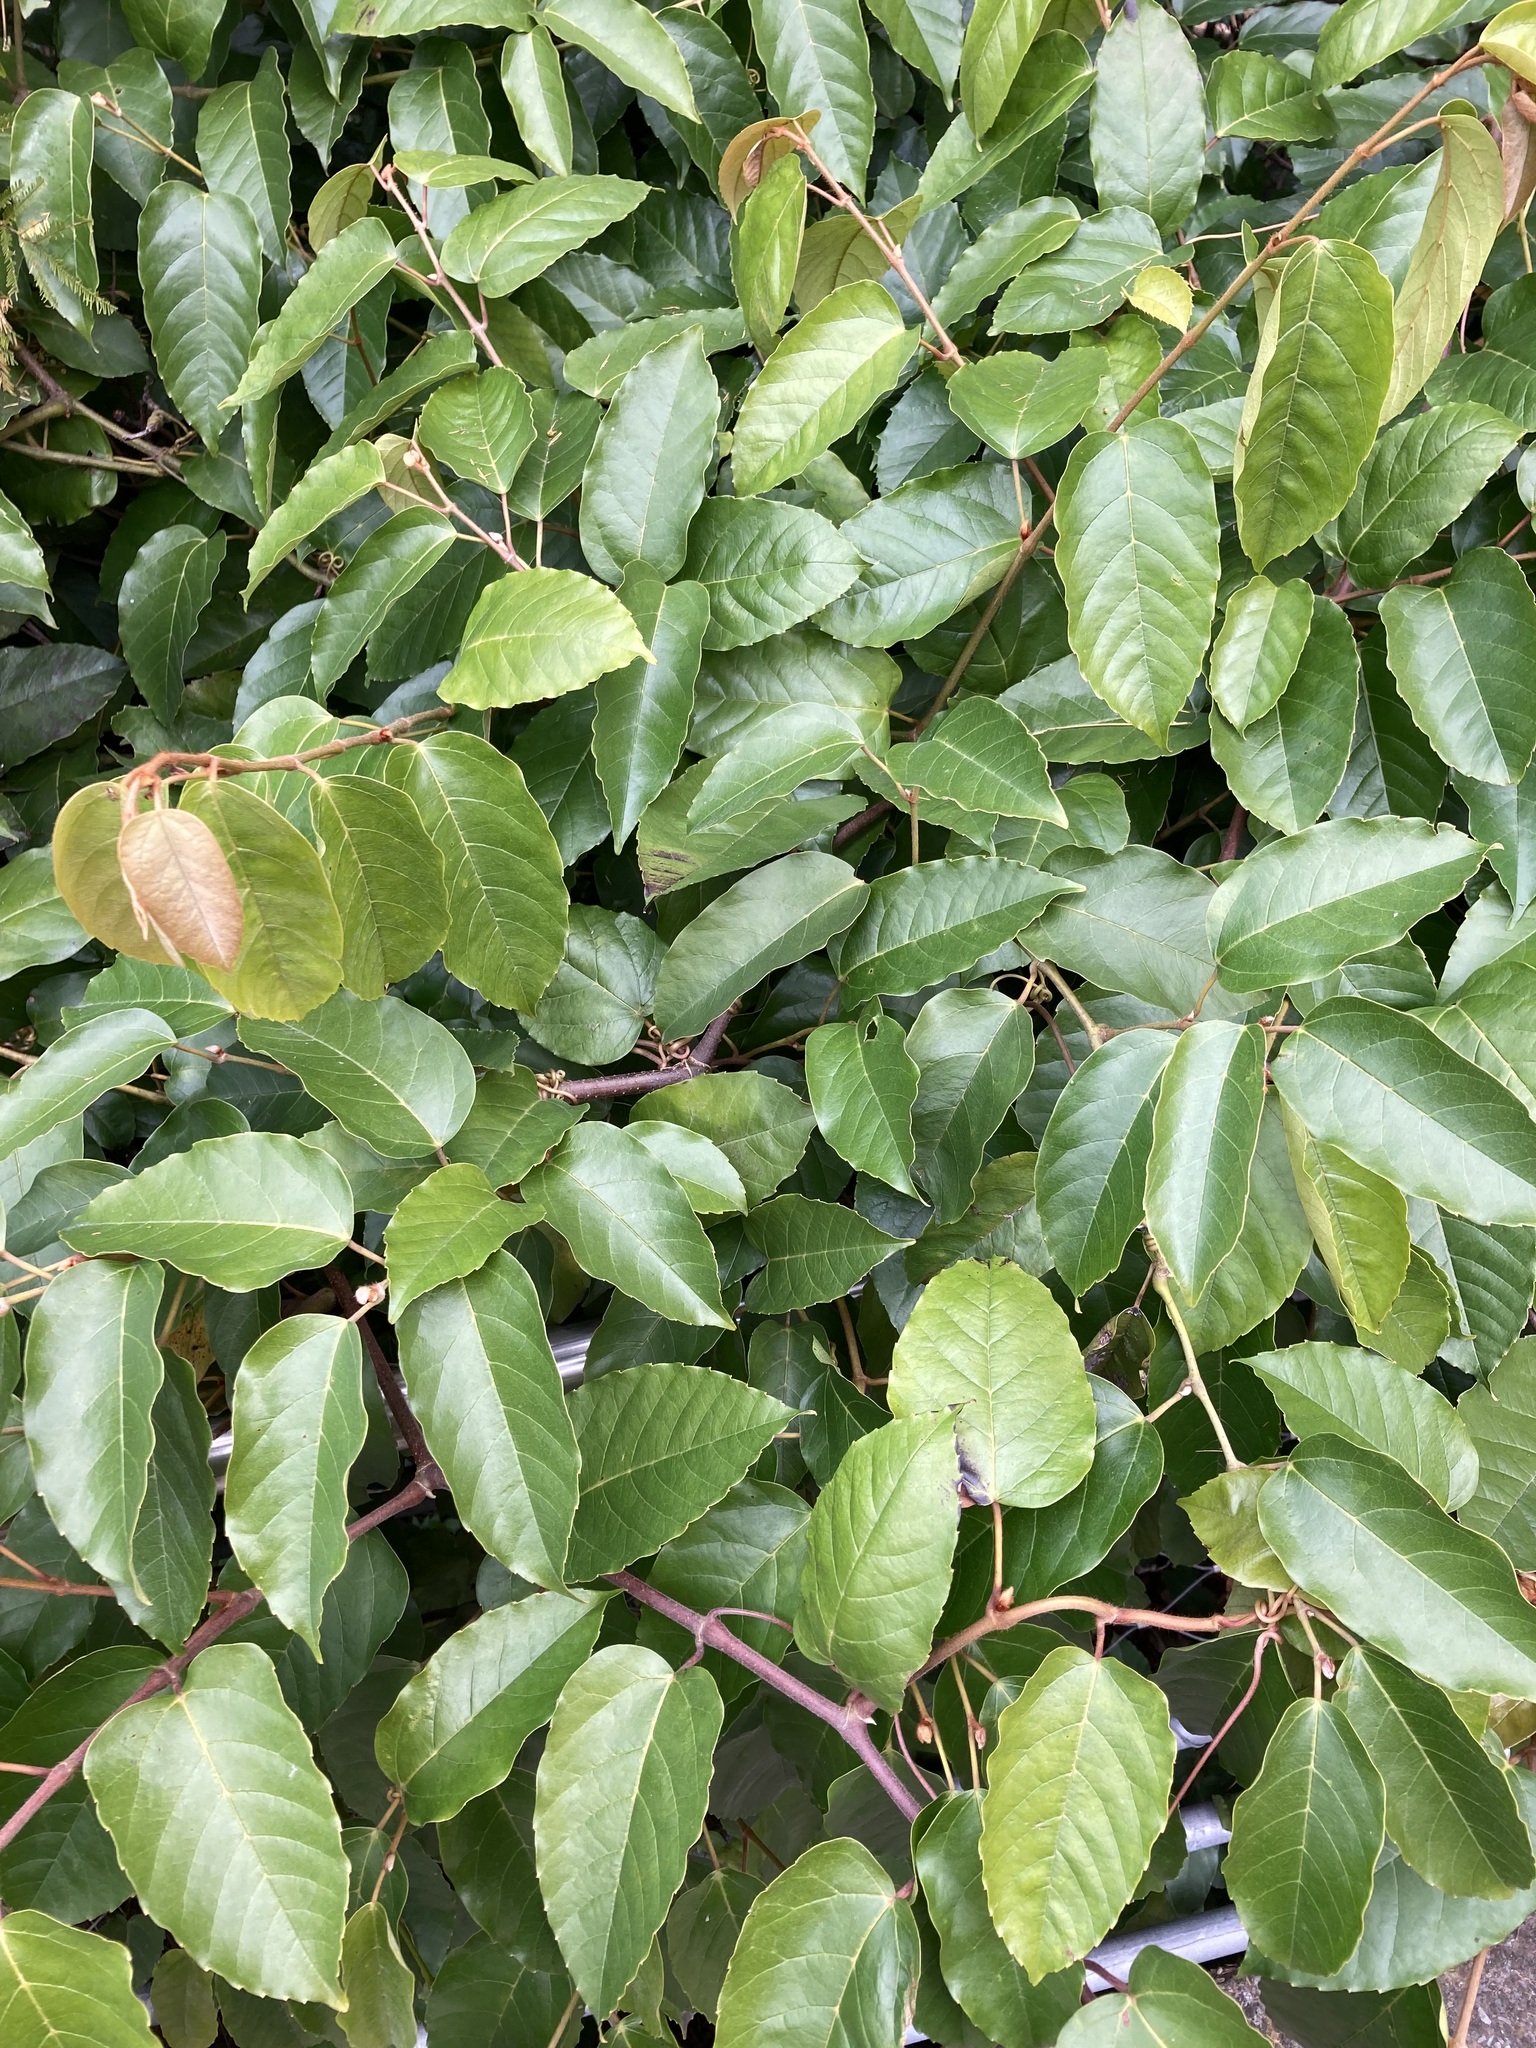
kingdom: Plantae
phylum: Tracheophyta
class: Magnoliopsida
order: Vitales
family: Vitaceae
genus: Cissus
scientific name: Cissus antarctica
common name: Kangaroo vine
